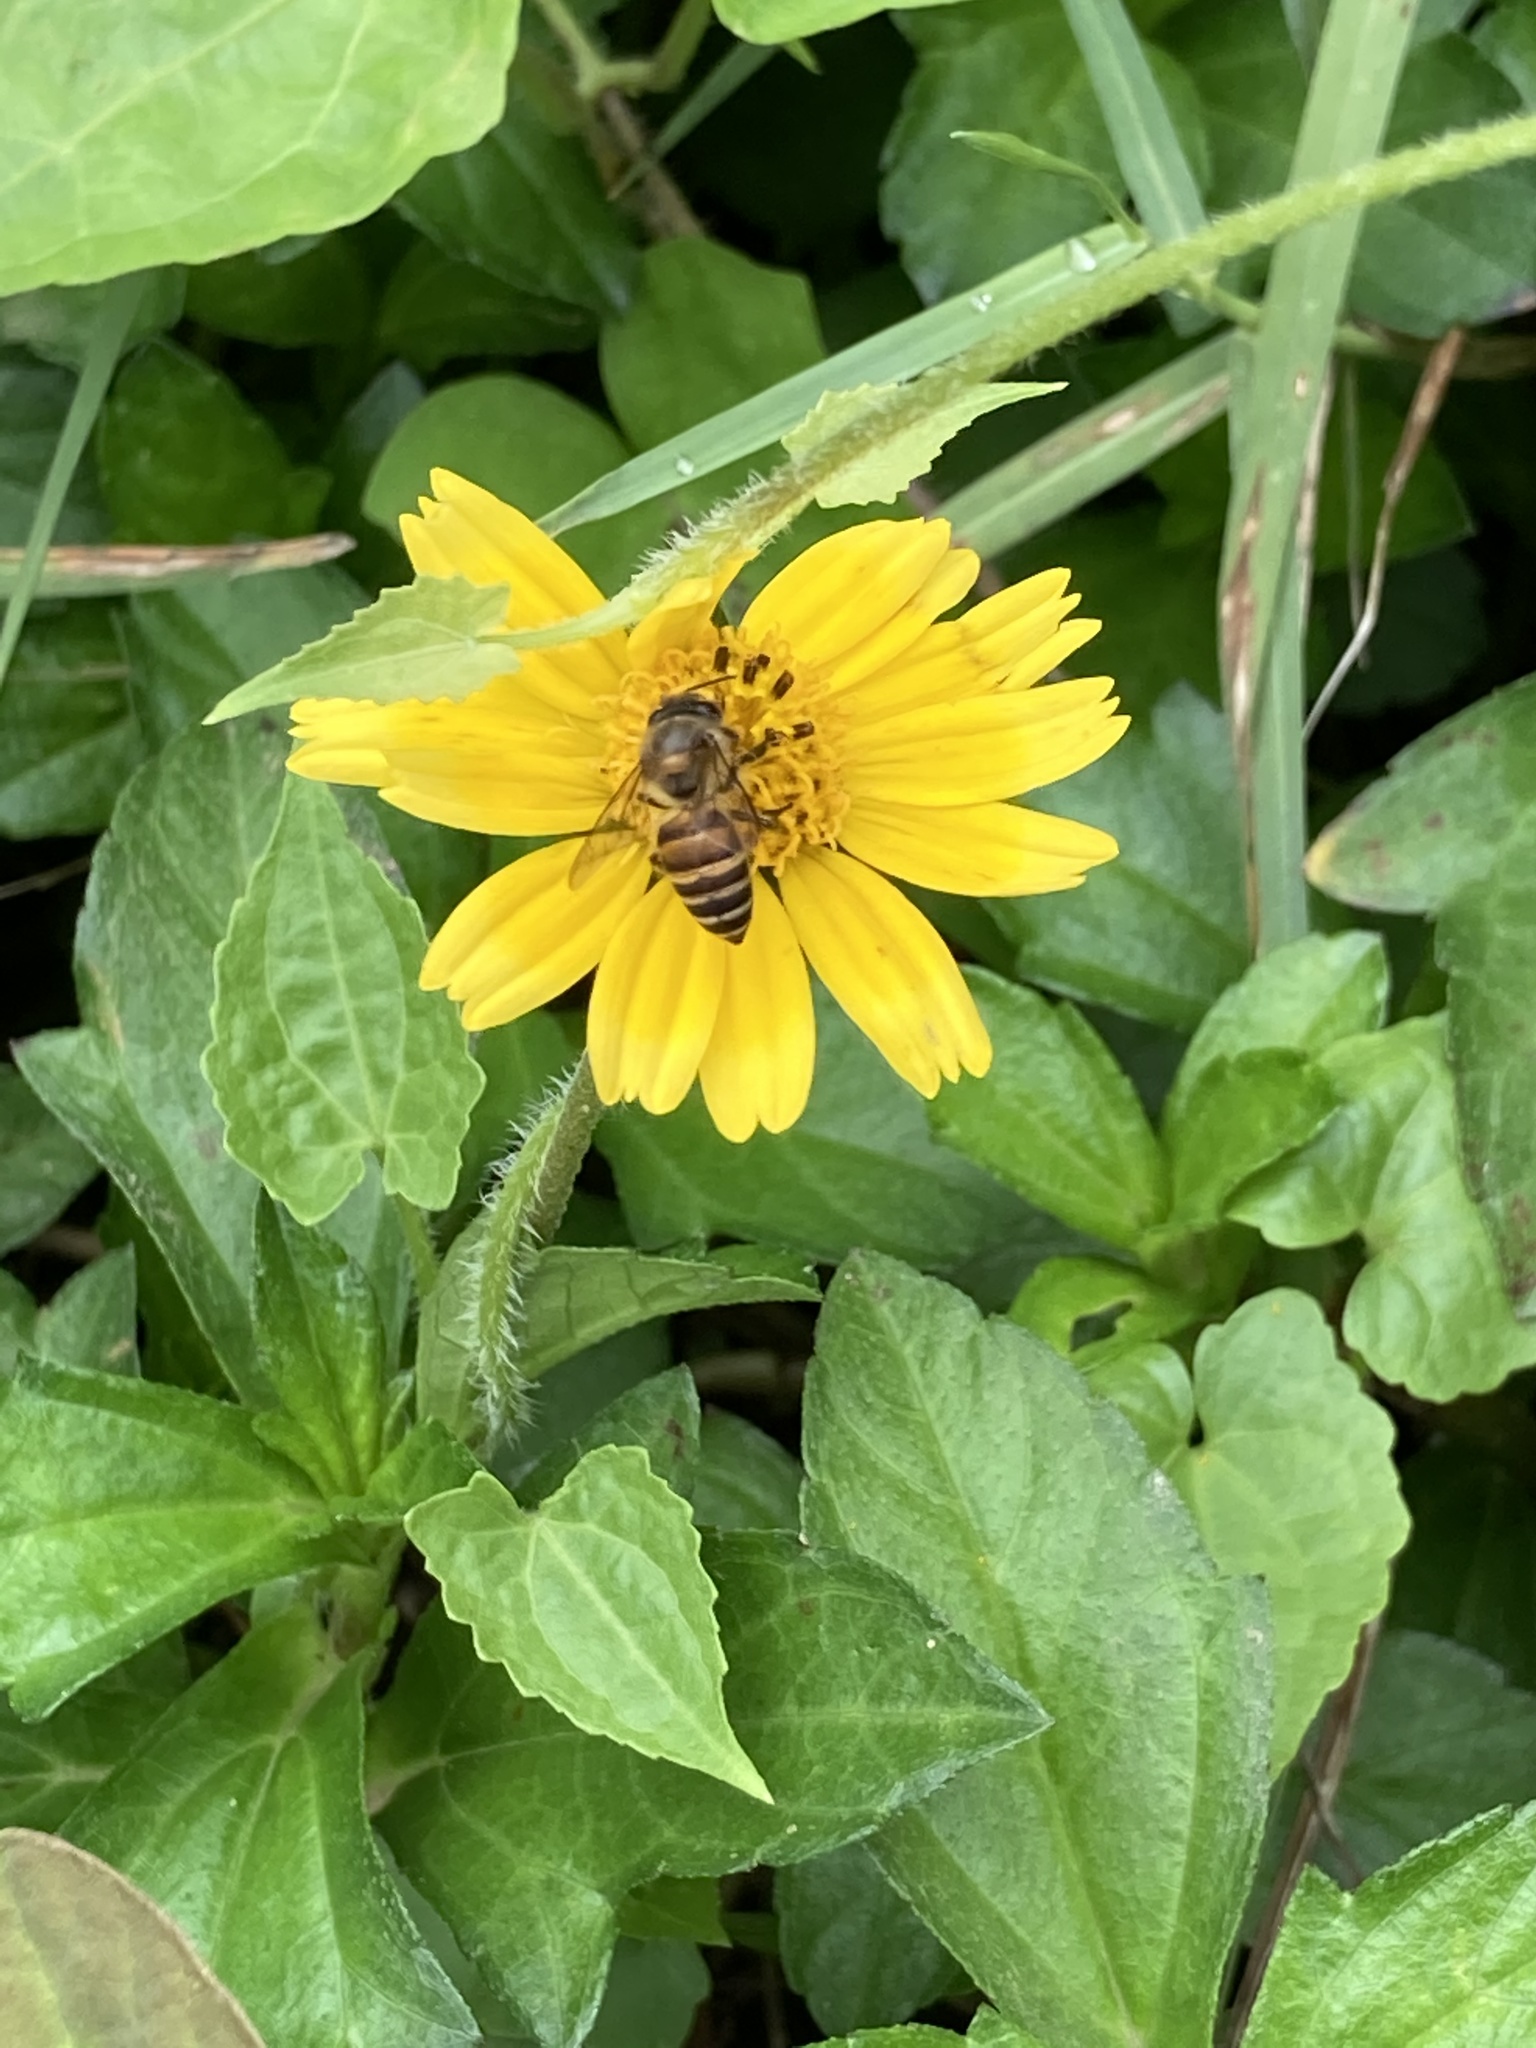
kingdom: Animalia
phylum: Arthropoda
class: Insecta
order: Hymenoptera
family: Apidae
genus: Apis
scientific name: Apis cerana
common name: Honey bee
